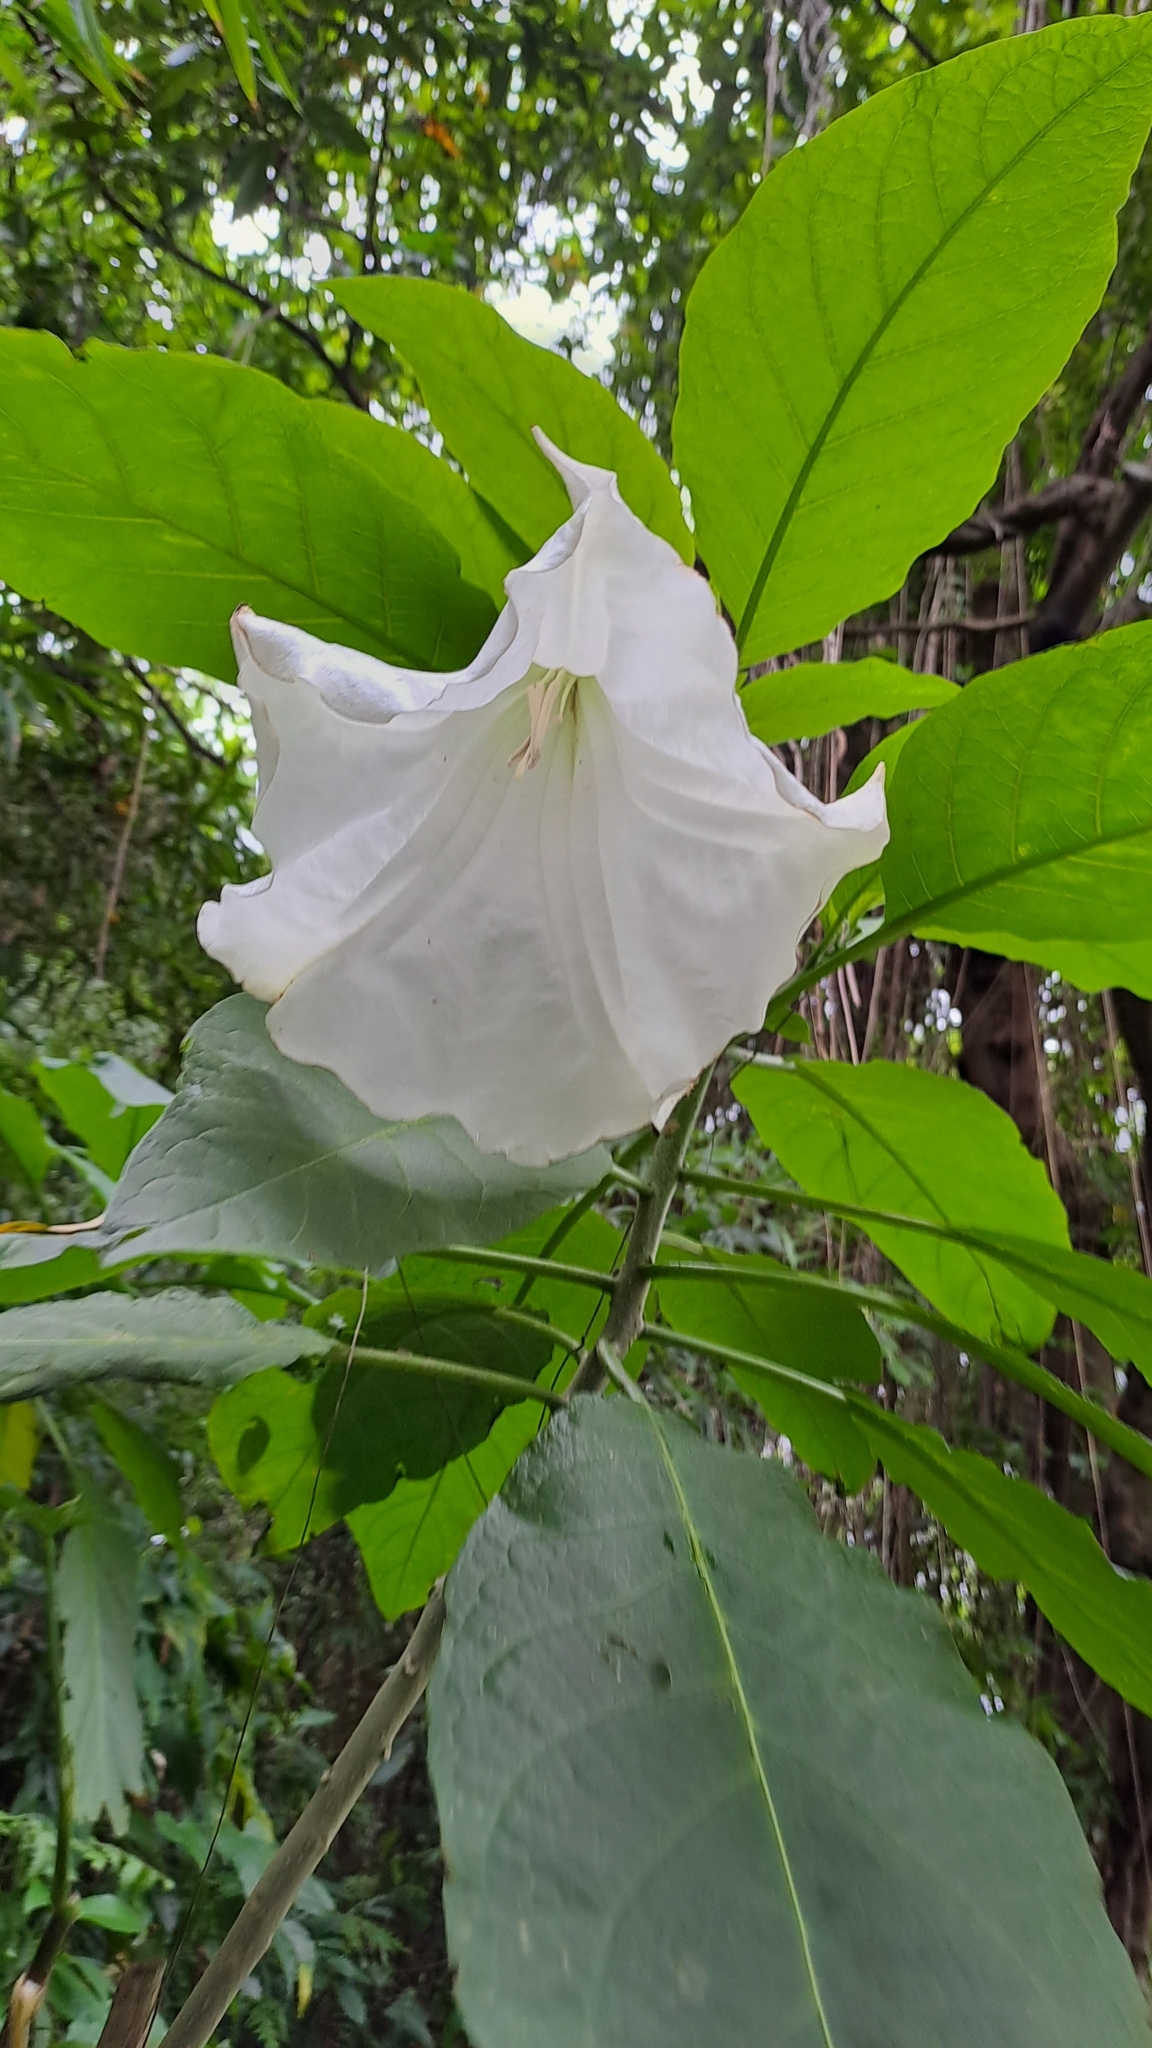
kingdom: Plantae
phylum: Tracheophyta
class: Magnoliopsida
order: Solanales
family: Solanaceae
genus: Brugmansia
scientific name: Brugmansia suaveolens
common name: Angel's tears
